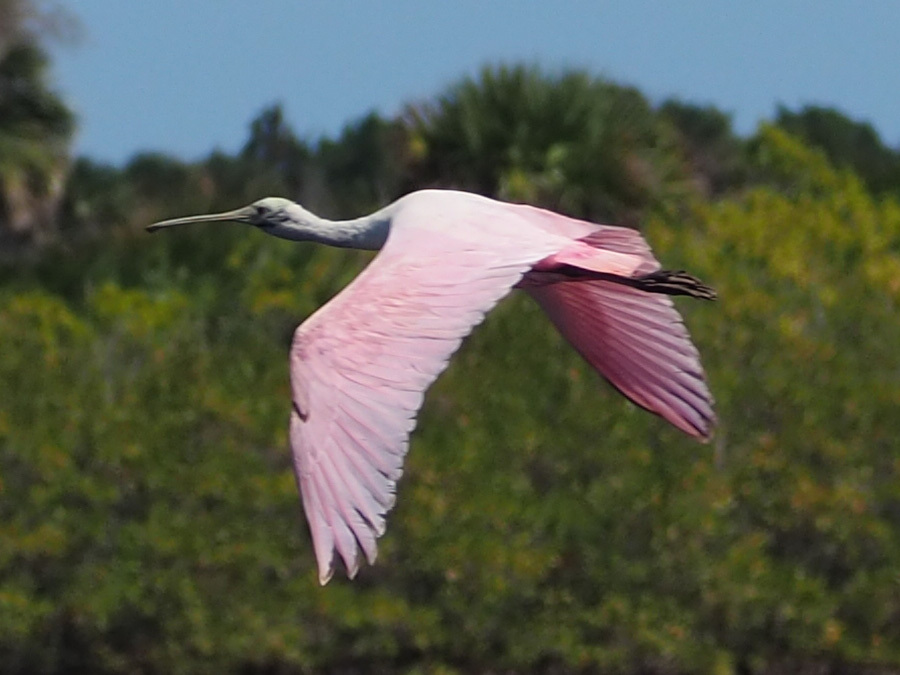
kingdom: Animalia
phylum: Chordata
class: Aves
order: Pelecaniformes
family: Threskiornithidae
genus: Platalea
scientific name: Platalea ajaja
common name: Roseate spoonbill
